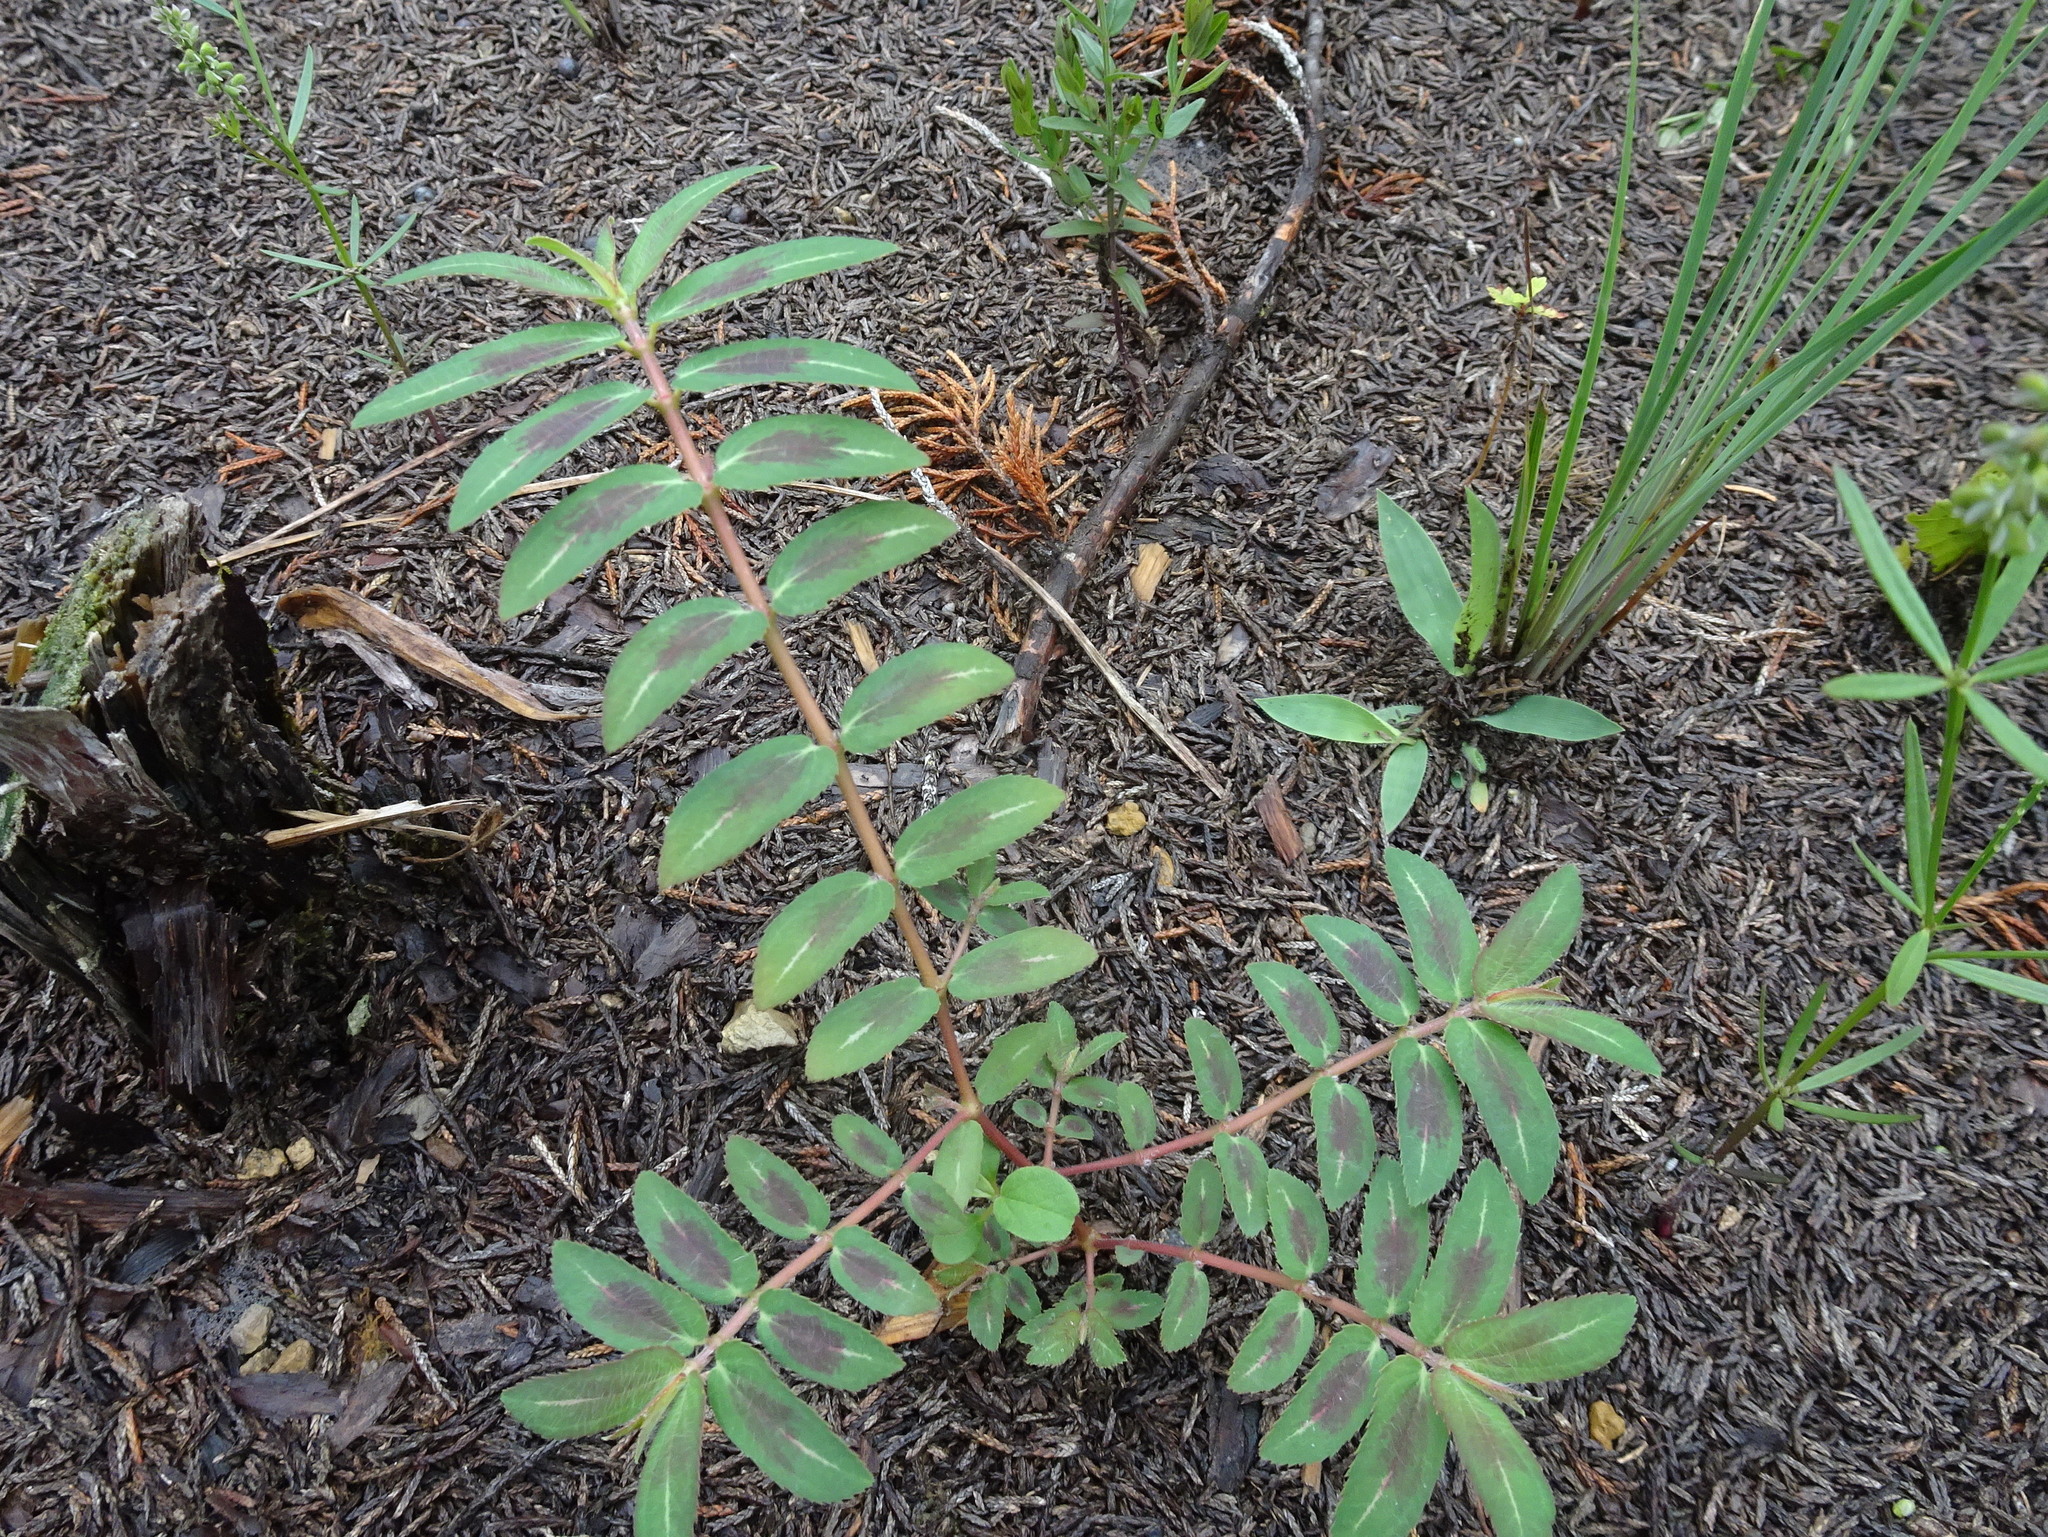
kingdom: Plantae
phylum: Tracheophyta
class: Magnoliopsida
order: Malpighiales
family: Euphorbiaceae
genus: Euphorbia
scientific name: Euphorbia nutans
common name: Eyebane
